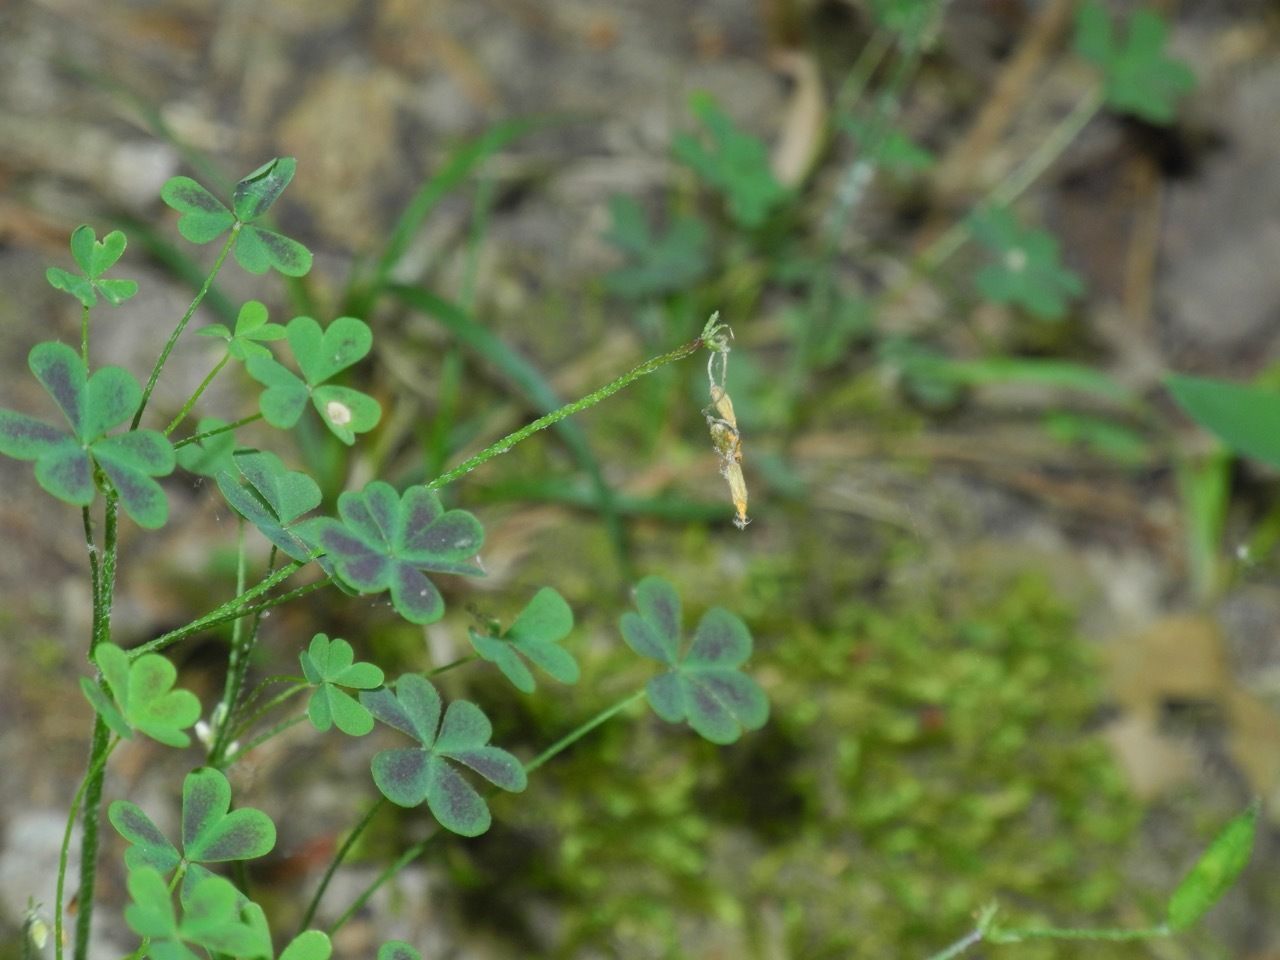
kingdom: Plantae
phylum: Tracheophyta
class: Magnoliopsida
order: Oxalidales
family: Oxalidaceae
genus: Oxalis
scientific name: Oxalis corniculata
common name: Procumbent yellow-sorrel
